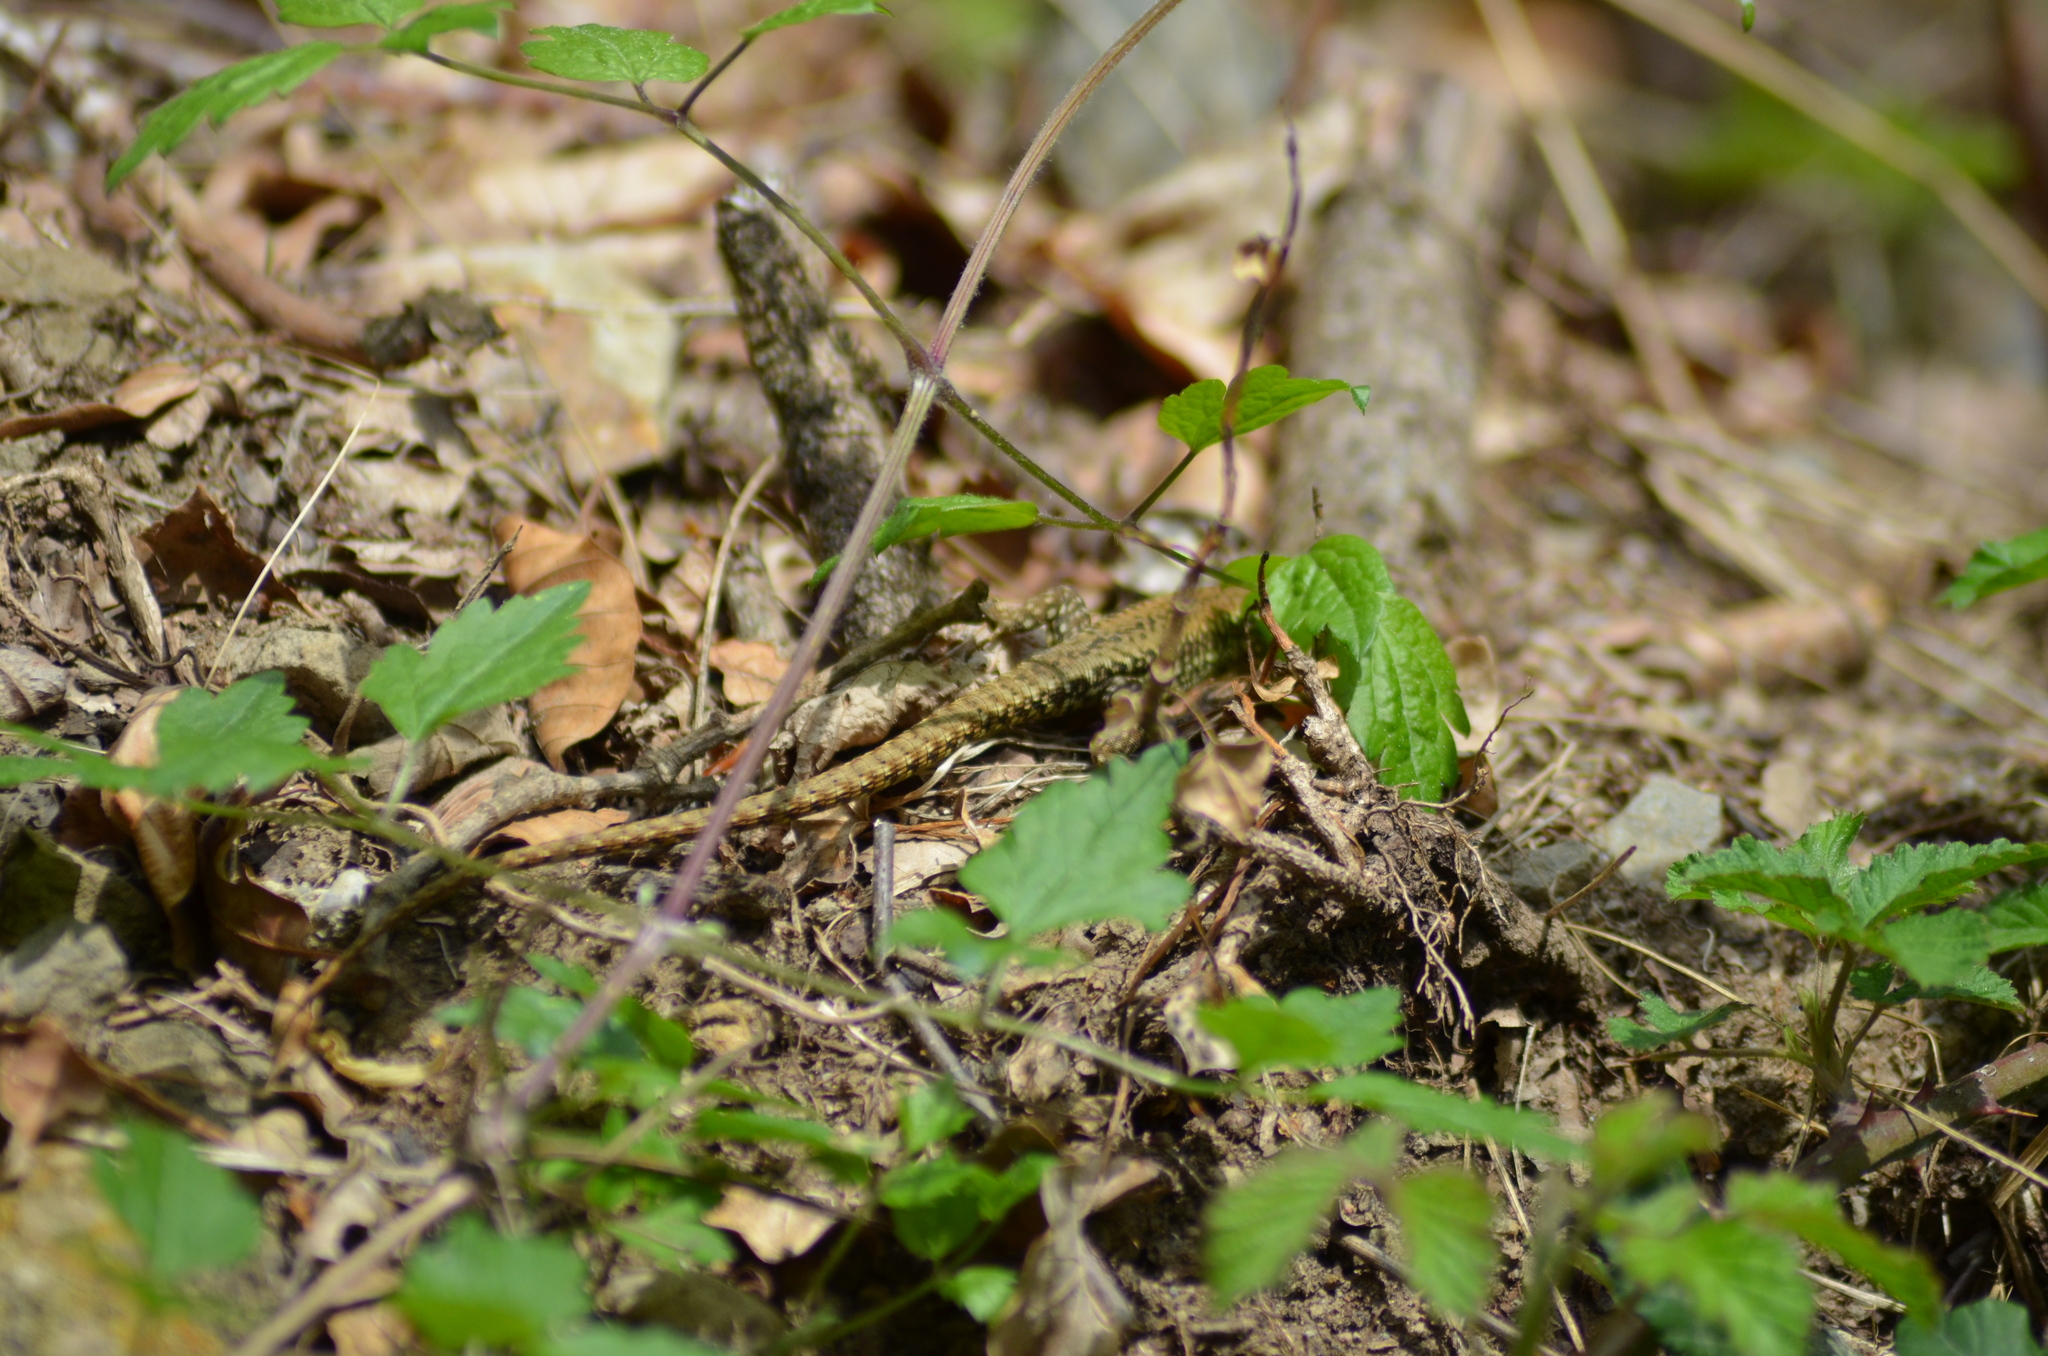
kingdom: Animalia
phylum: Chordata
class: Squamata
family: Lacertidae
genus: Podarcis
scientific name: Podarcis liolepis
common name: Catalonian wall lizard
